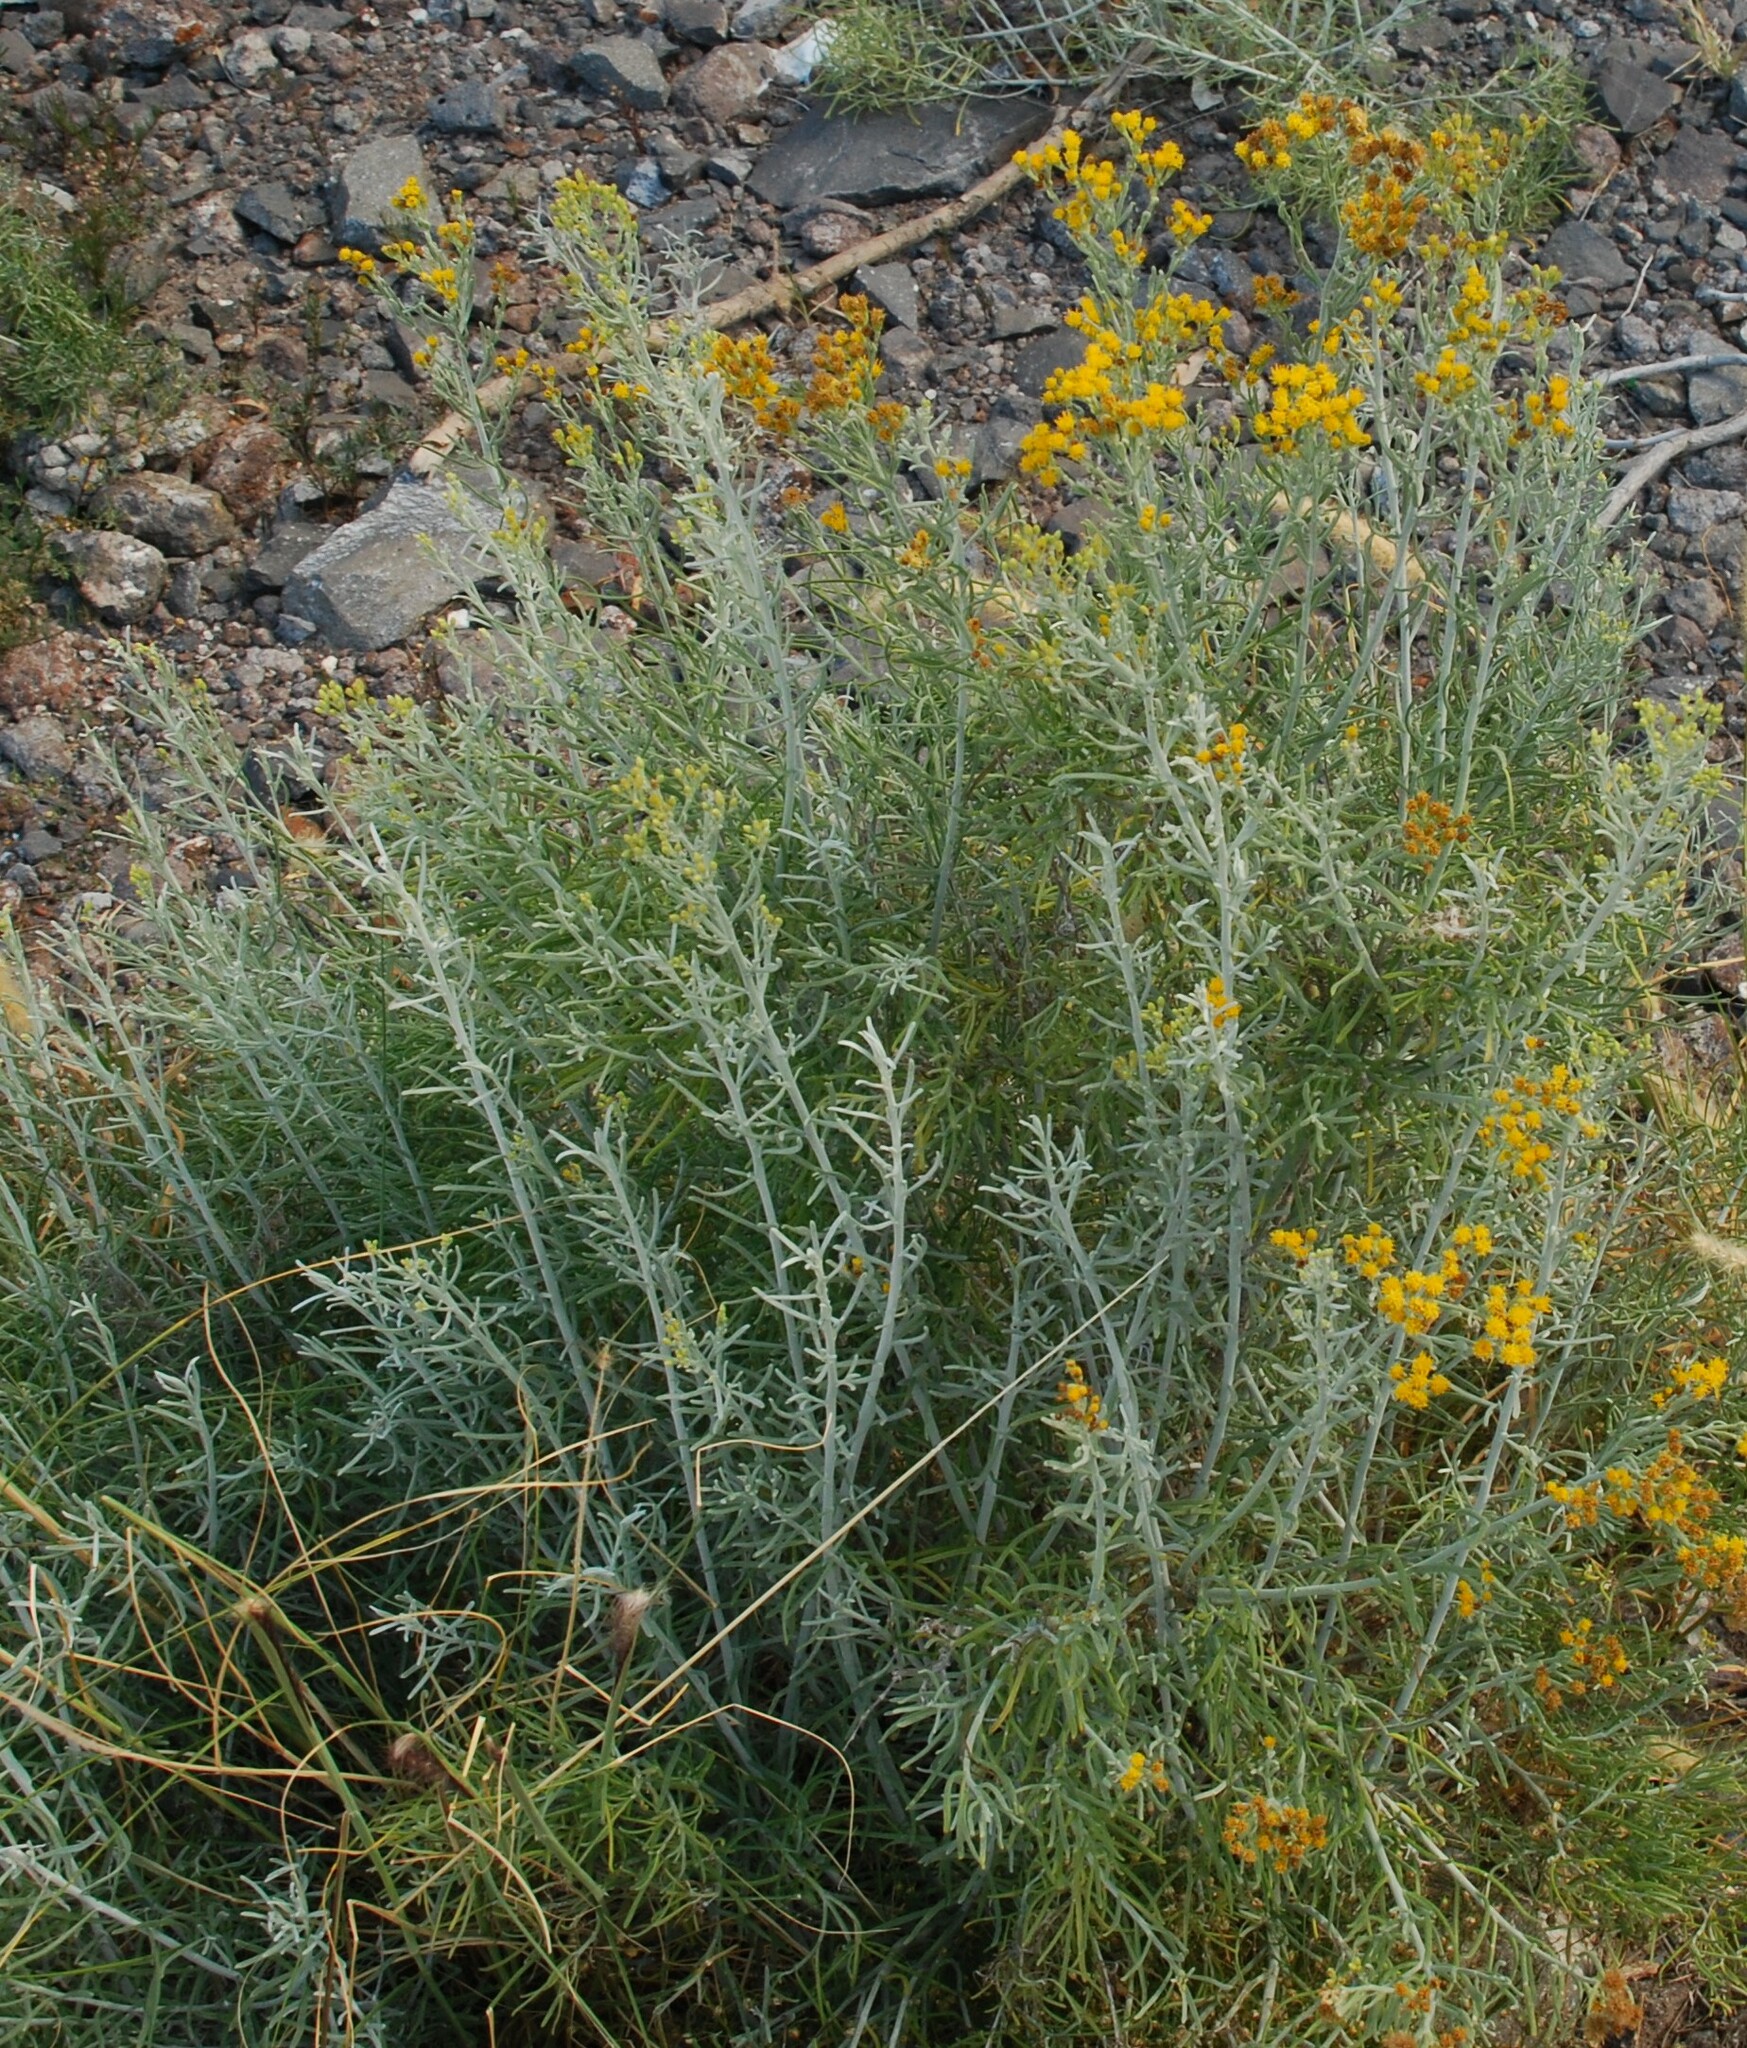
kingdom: Plantae
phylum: Tracheophyta
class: Magnoliopsida
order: Asterales
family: Asteraceae
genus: Schizogyne
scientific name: Schizogyne sericea
